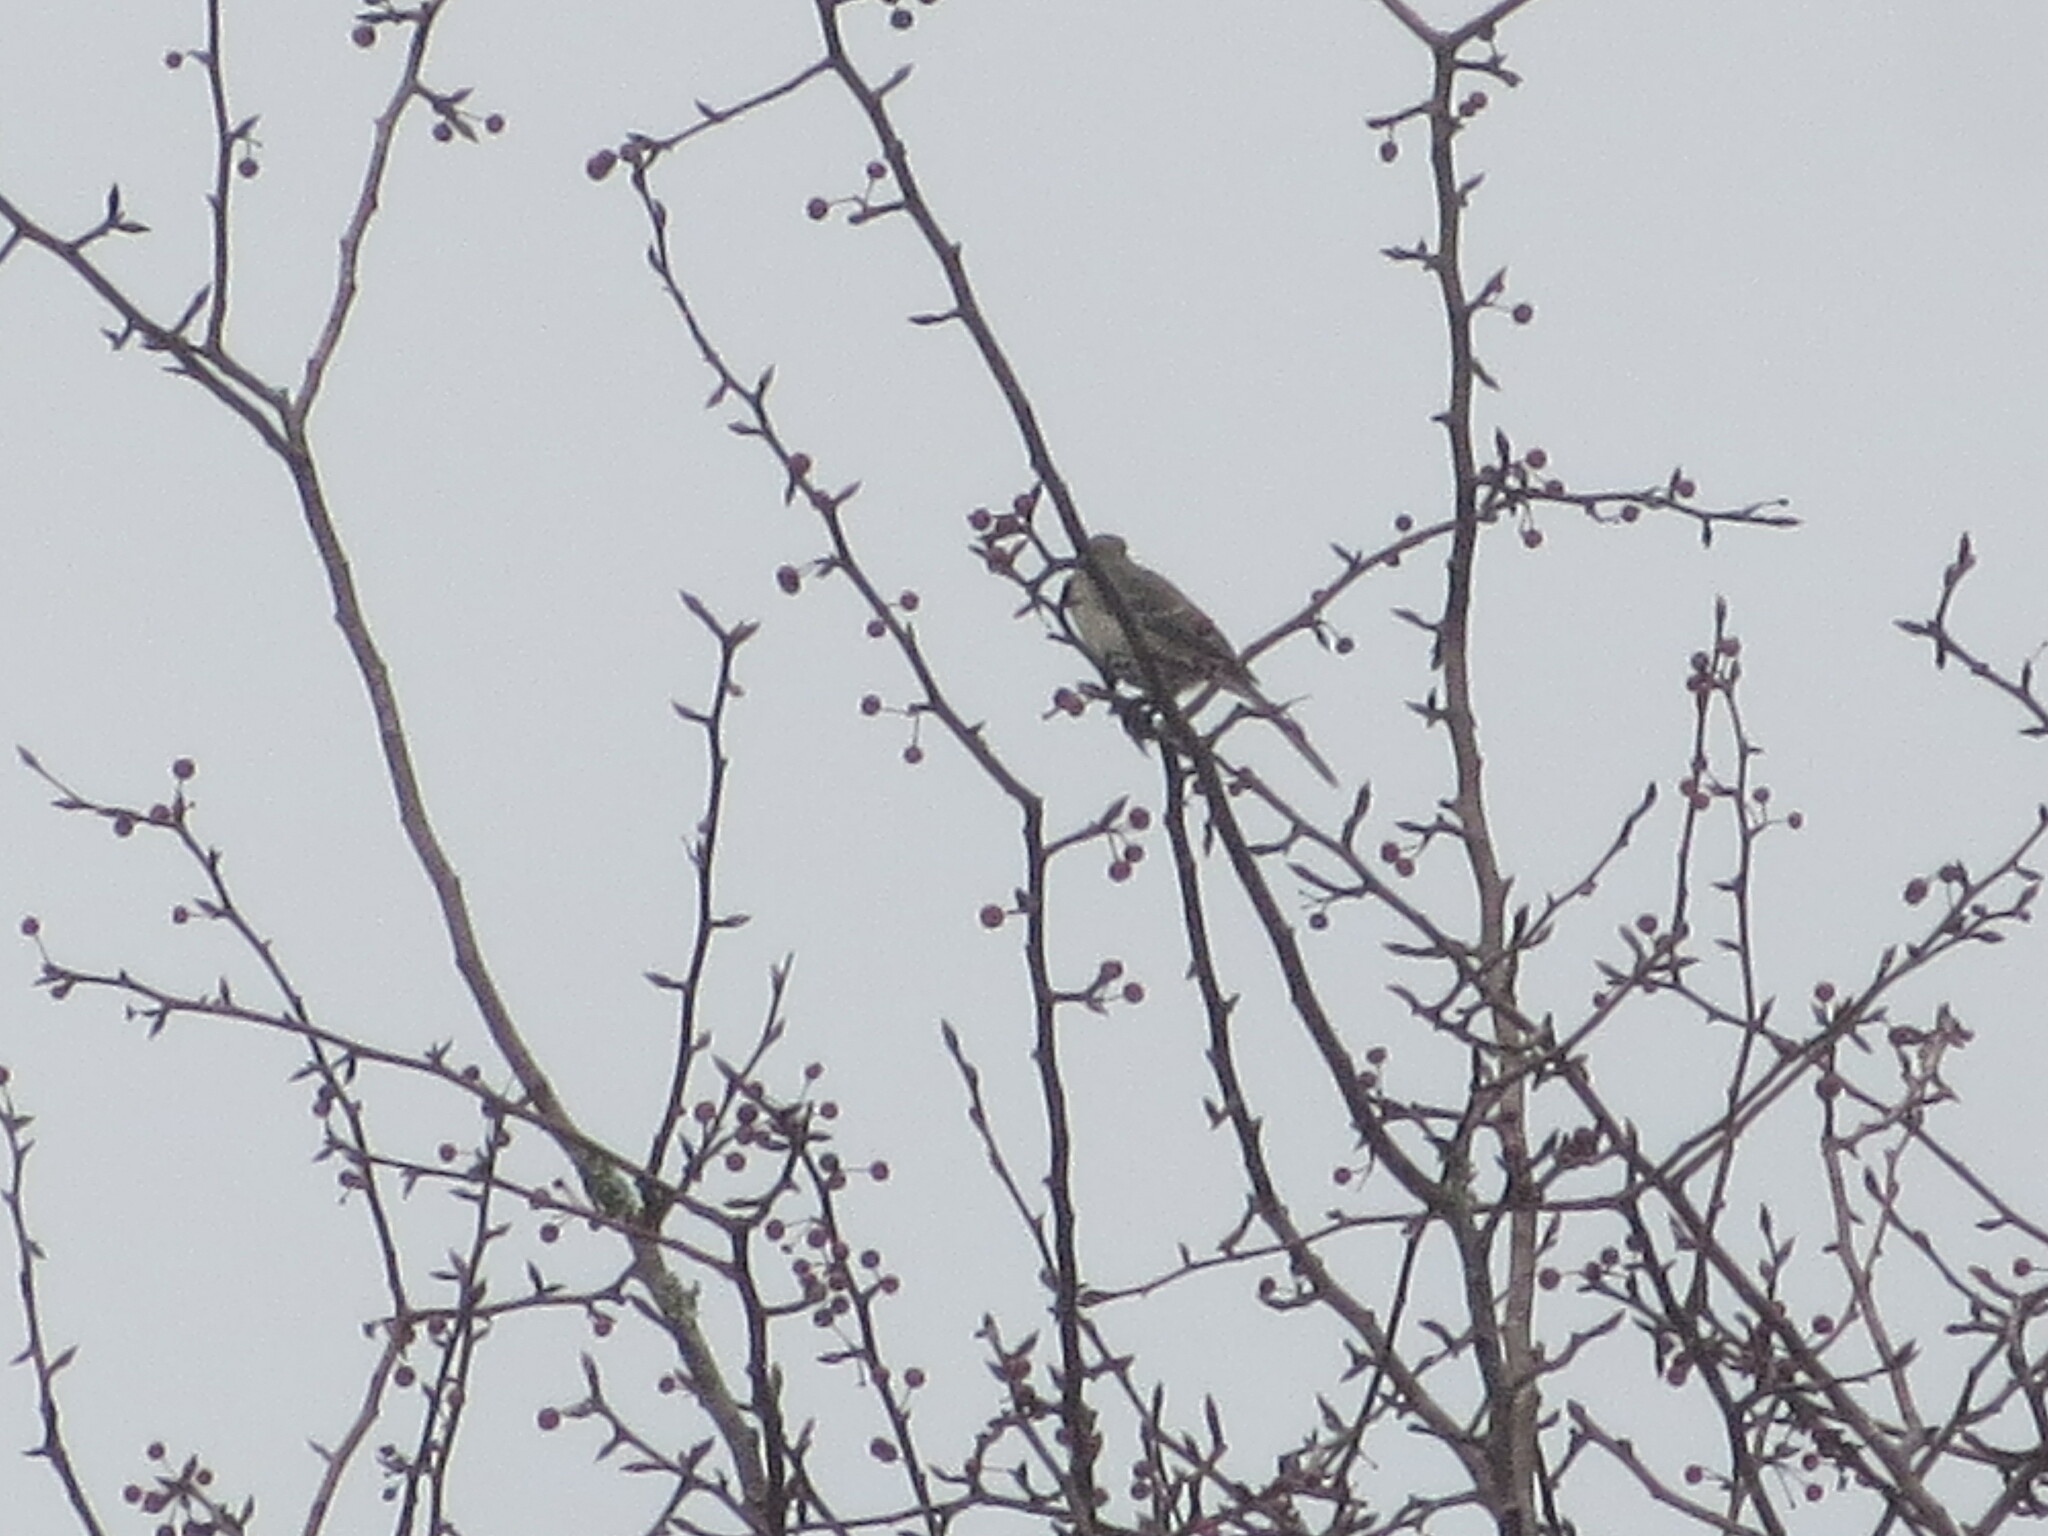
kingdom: Animalia
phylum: Chordata
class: Aves
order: Passeriformes
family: Mimidae
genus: Mimus
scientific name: Mimus polyglottos
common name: Northern mockingbird
